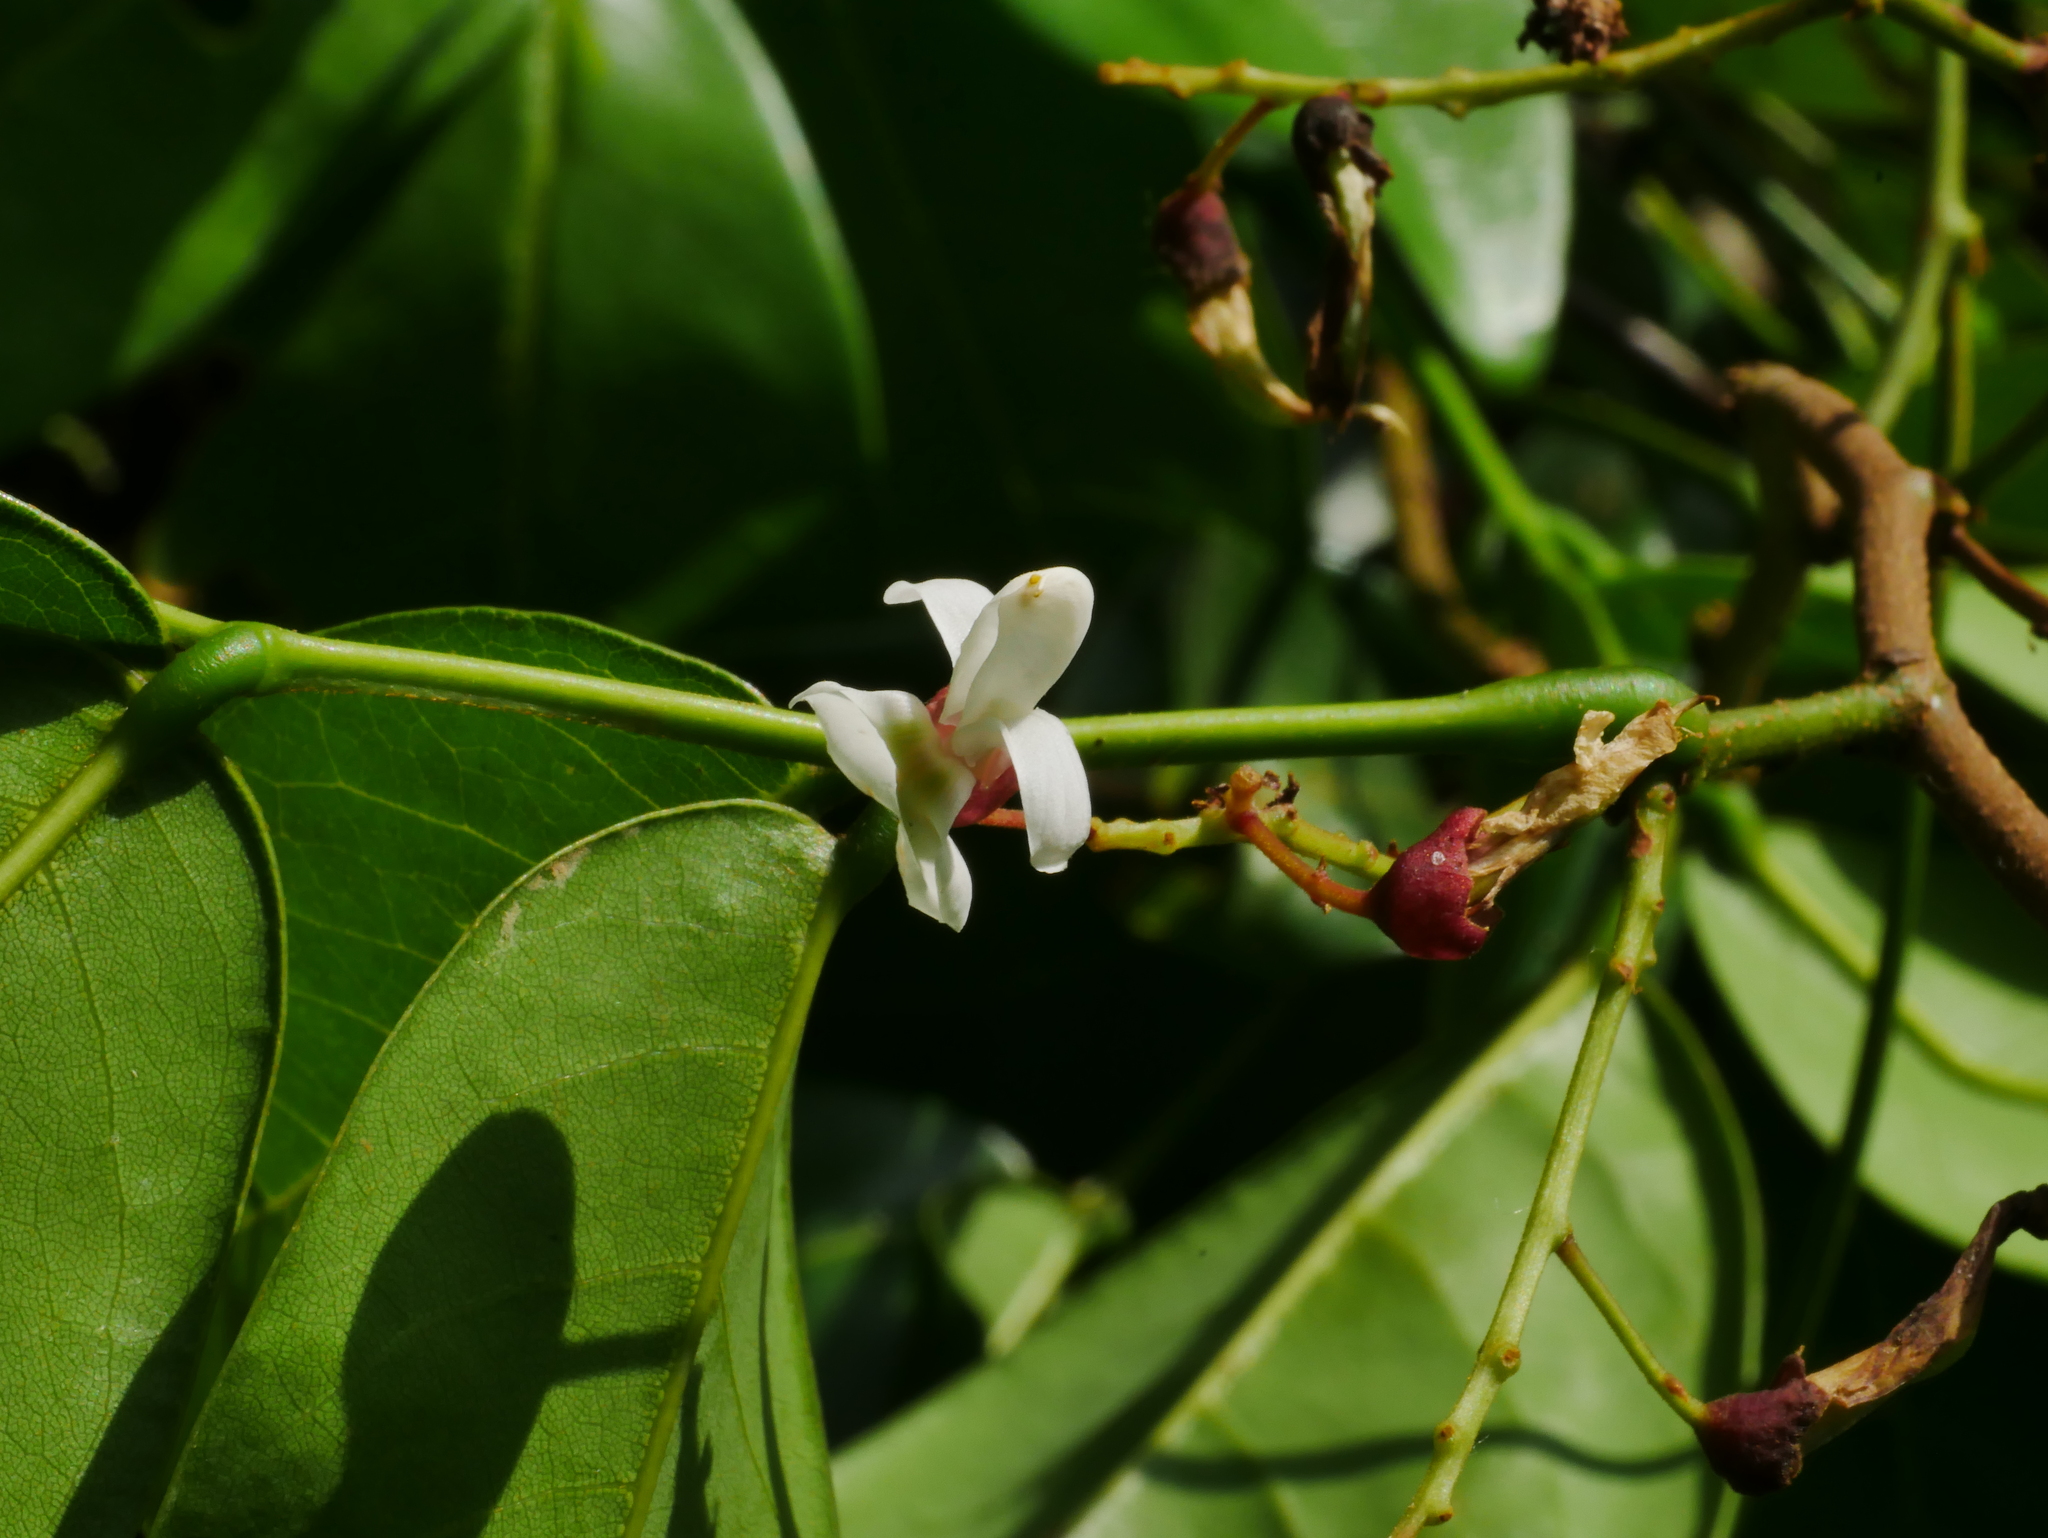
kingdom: Plantae
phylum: Tracheophyta
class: Magnoliopsida
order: Fabales
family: Fabaceae
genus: Derris
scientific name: Derris laxiflora
